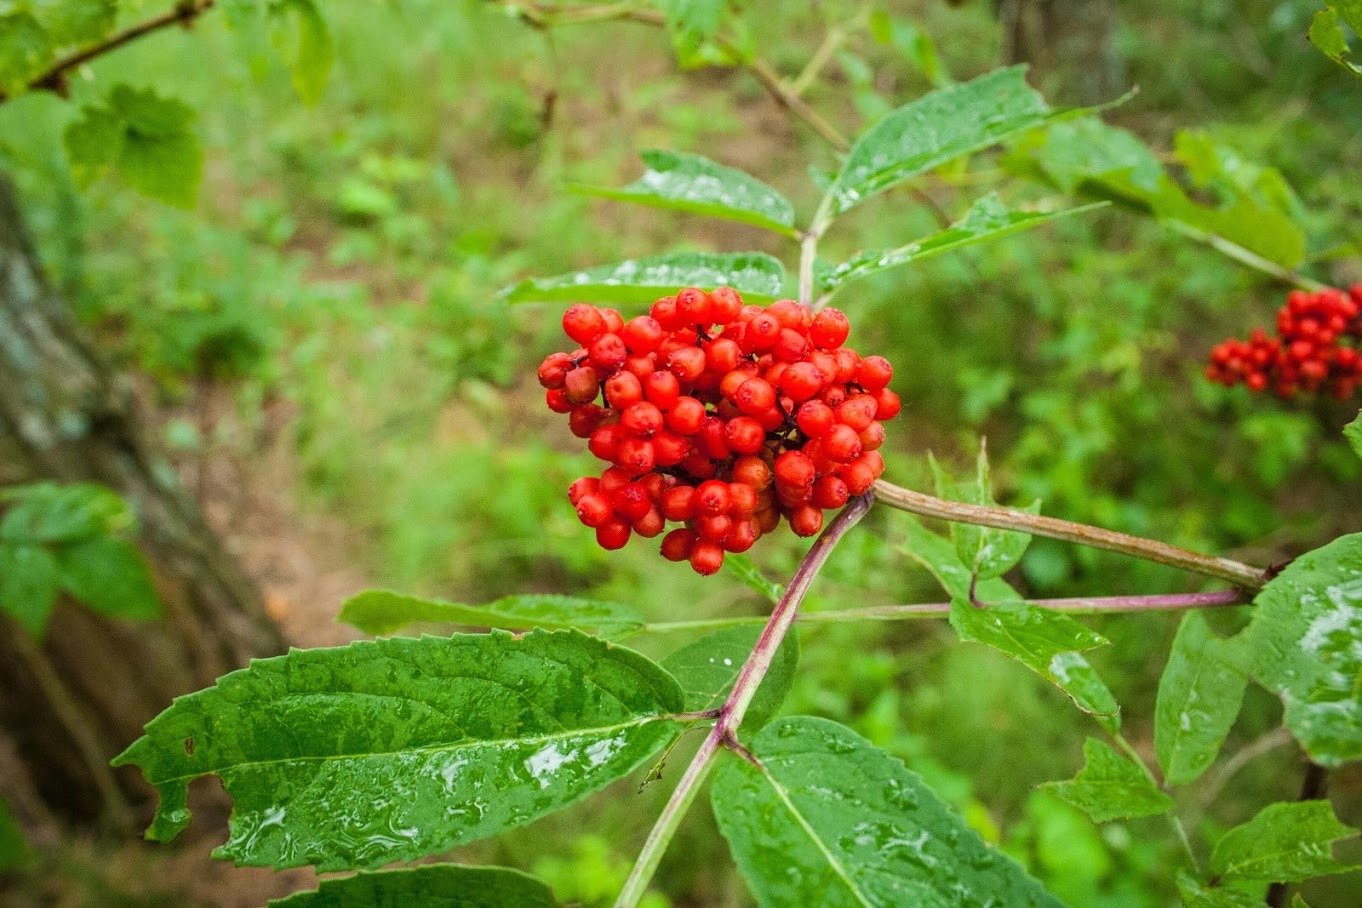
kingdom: Plantae
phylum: Tracheophyta
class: Magnoliopsida
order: Dipsacales
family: Viburnaceae
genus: Sambucus
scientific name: Sambucus racemosa
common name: Red-berried elder
